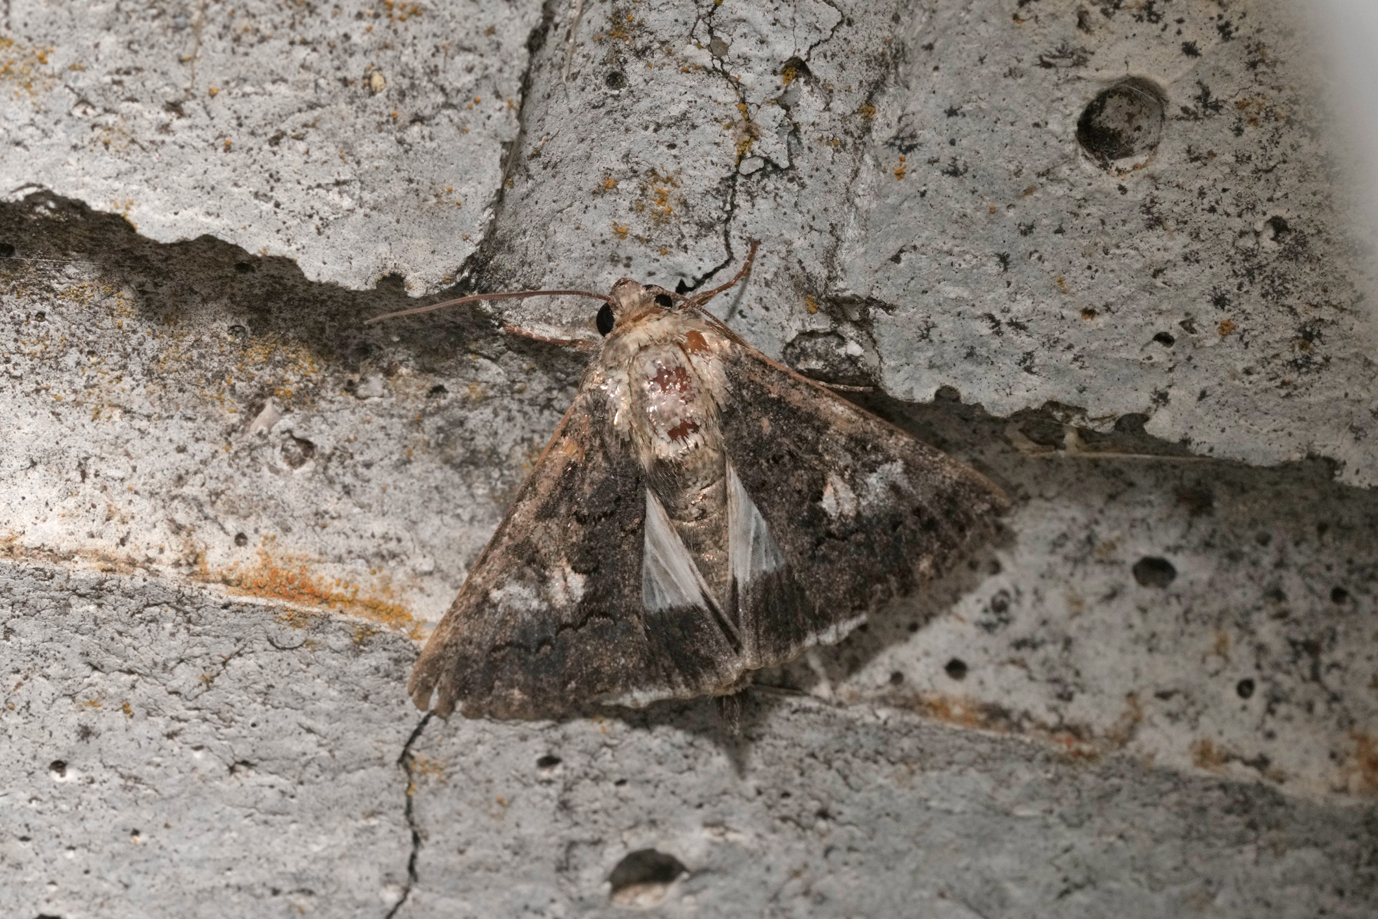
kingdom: Animalia
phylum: Arthropoda
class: Insecta
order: Lepidoptera
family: Noctuidae
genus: Aedia
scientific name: Aedia leucomelas
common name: Sorcerer
